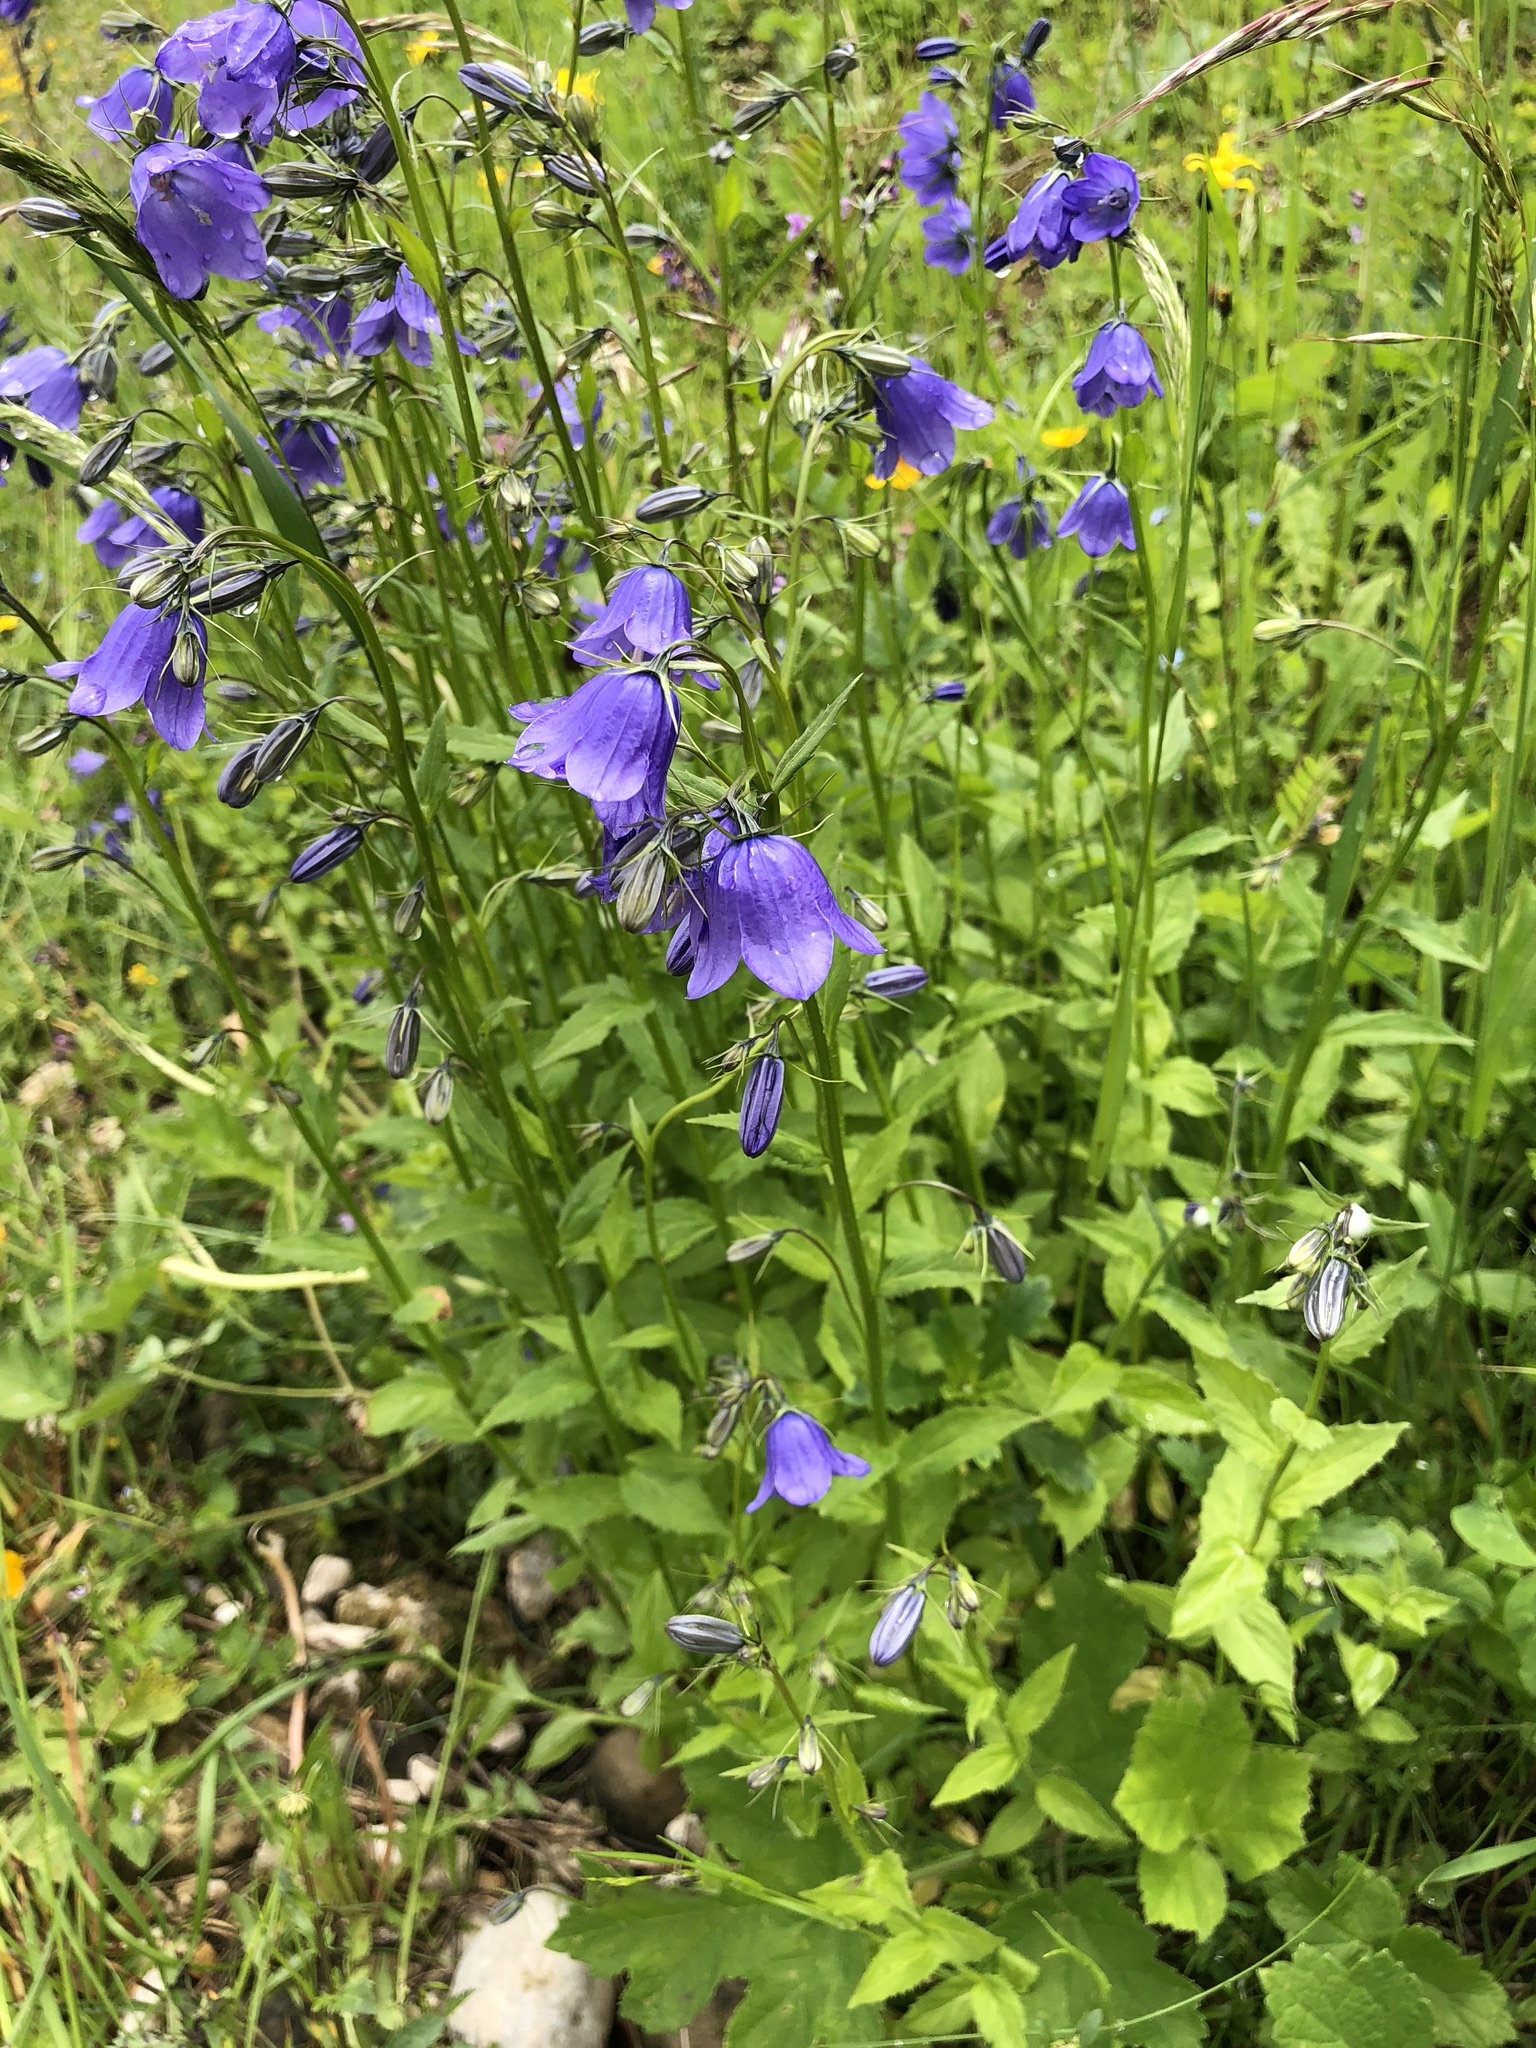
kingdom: Plantae
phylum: Tracheophyta
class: Magnoliopsida
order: Asterales
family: Campanulaceae
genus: Campanula
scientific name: Campanula rhomboidalis
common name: Broad-leaved harebell
